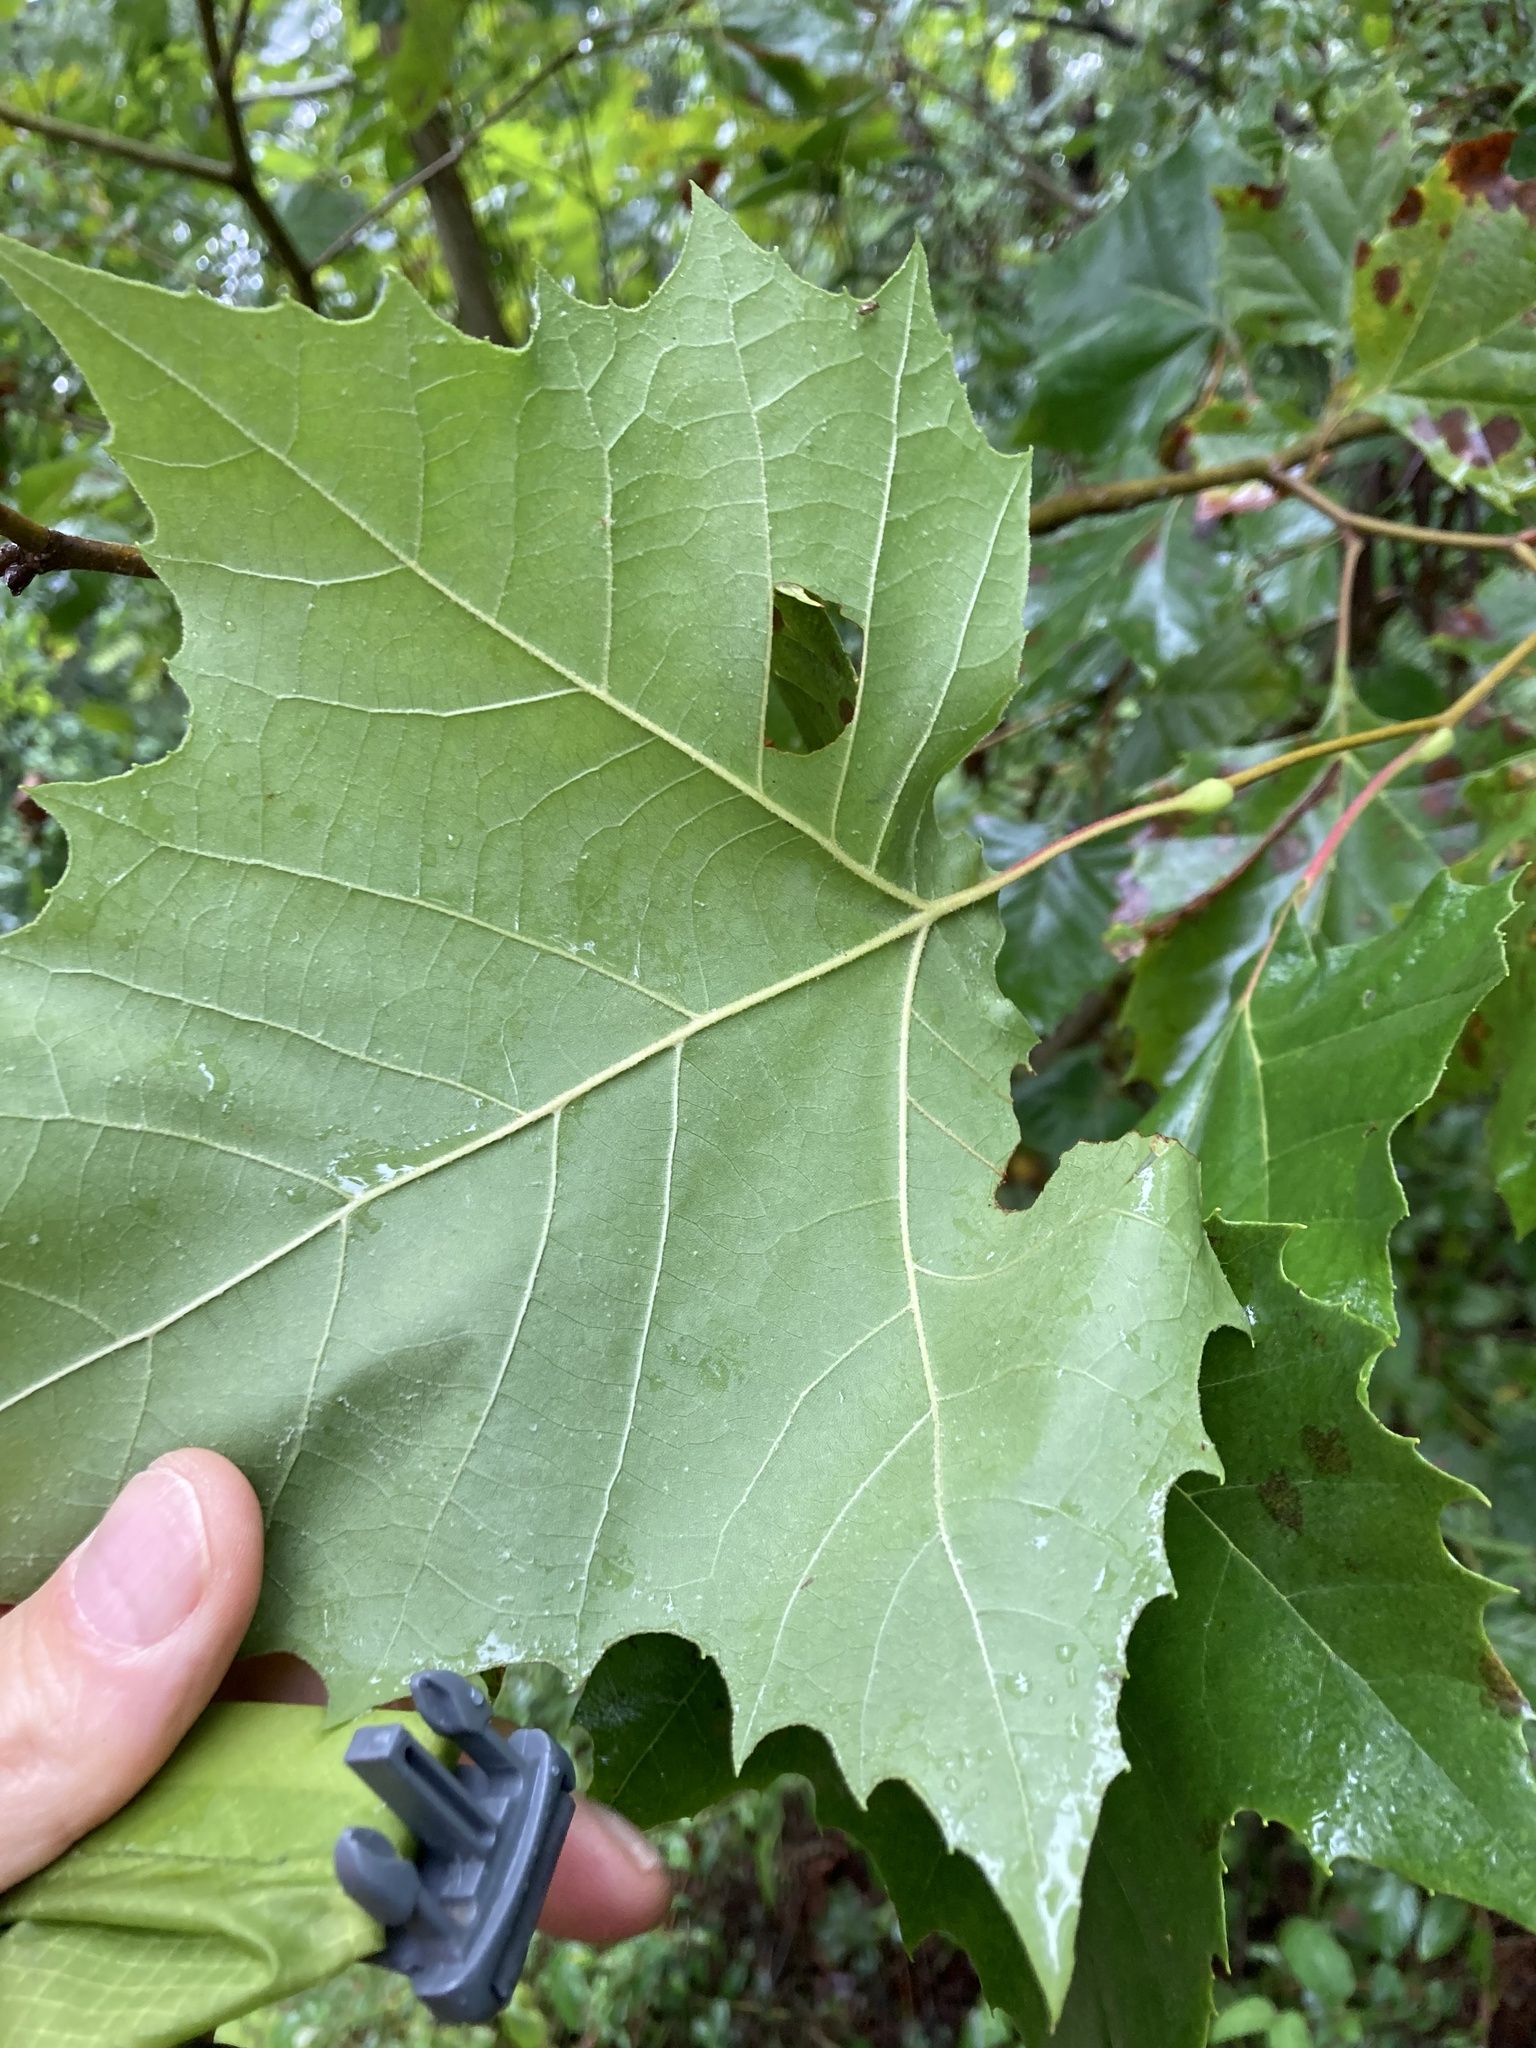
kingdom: Plantae
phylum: Tracheophyta
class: Magnoliopsida
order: Proteales
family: Platanaceae
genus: Platanus
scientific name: Platanus occidentalis
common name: American sycamore
